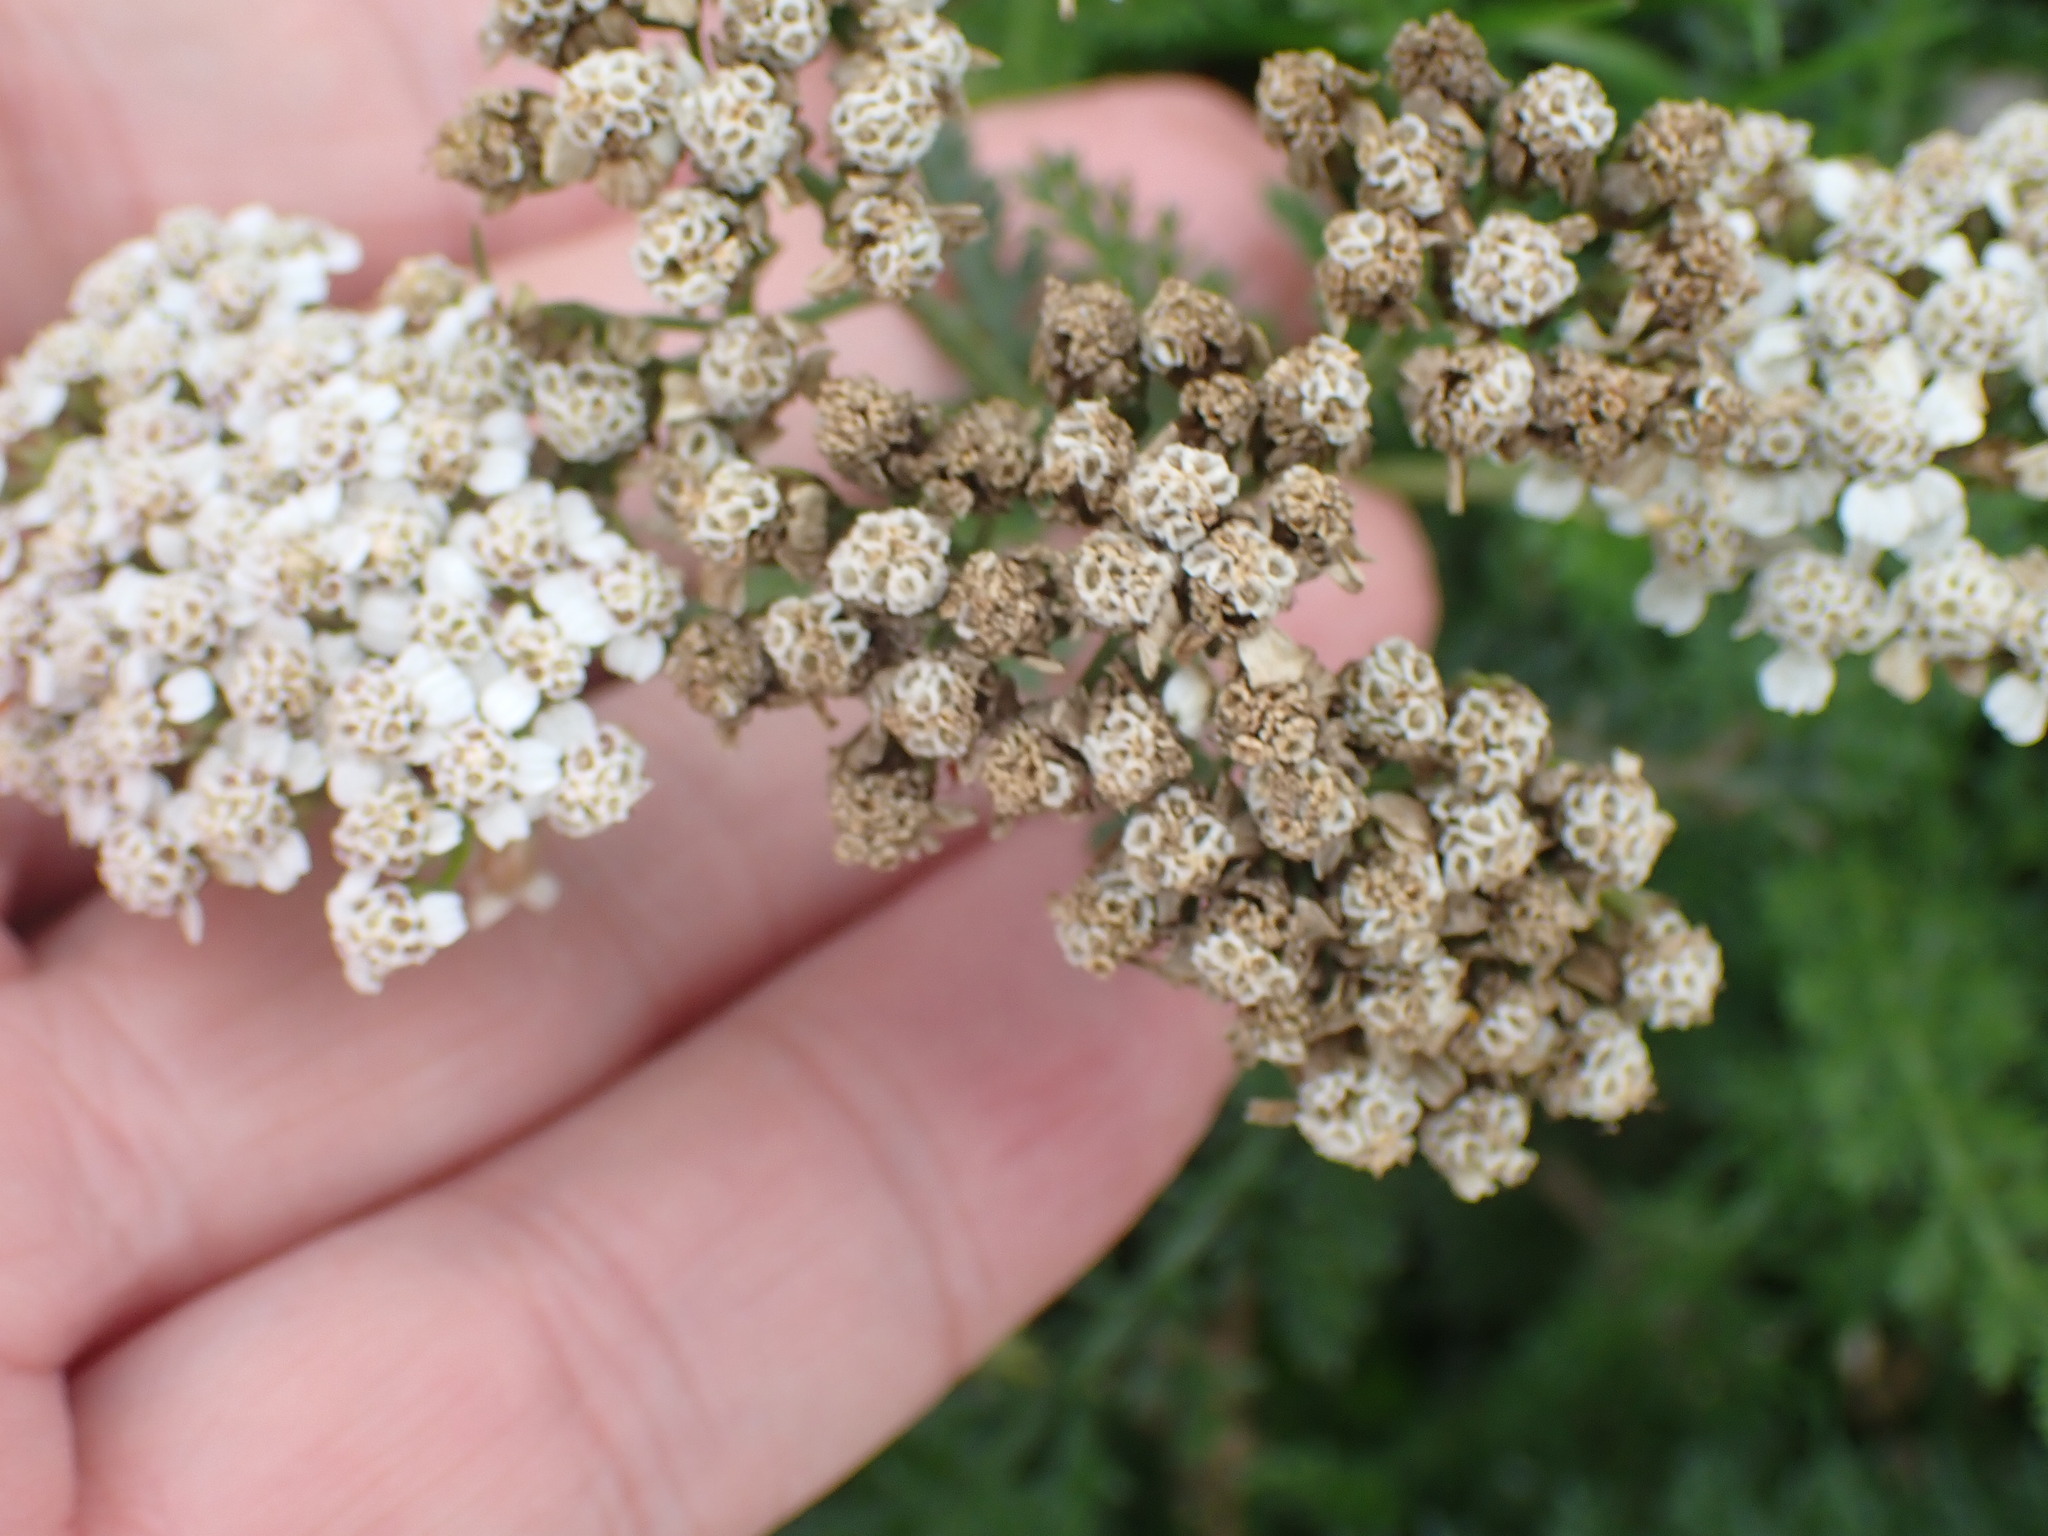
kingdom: Plantae
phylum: Tracheophyta
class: Magnoliopsida
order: Asterales
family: Asteraceae
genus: Achillea
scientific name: Achillea millefolium
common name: Yarrow
